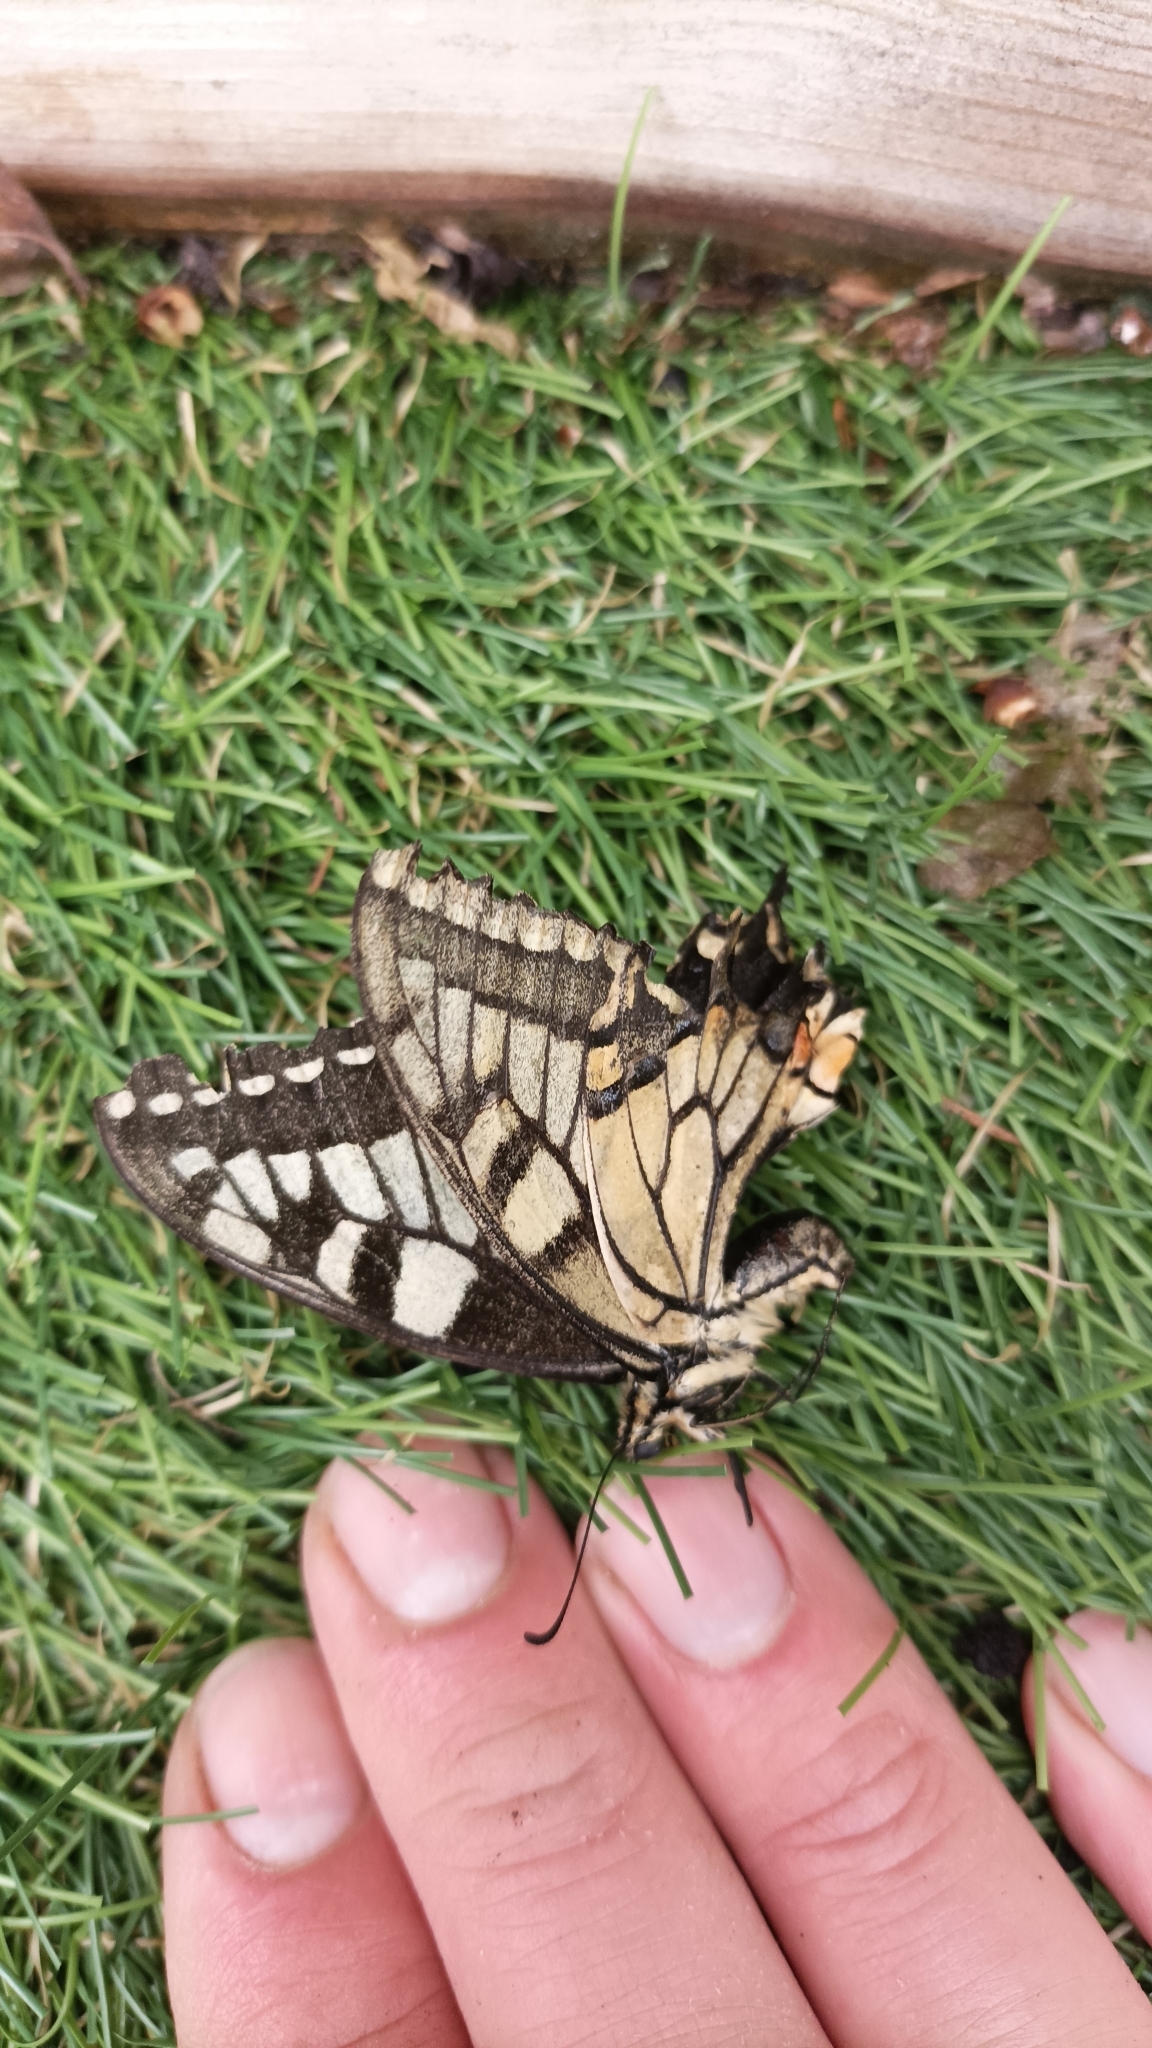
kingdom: Animalia
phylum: Arthropoda
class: Insecta
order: Lepidoptera
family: Papilionidae
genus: Papilio
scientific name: Papilio machaon
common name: Swallowtail
